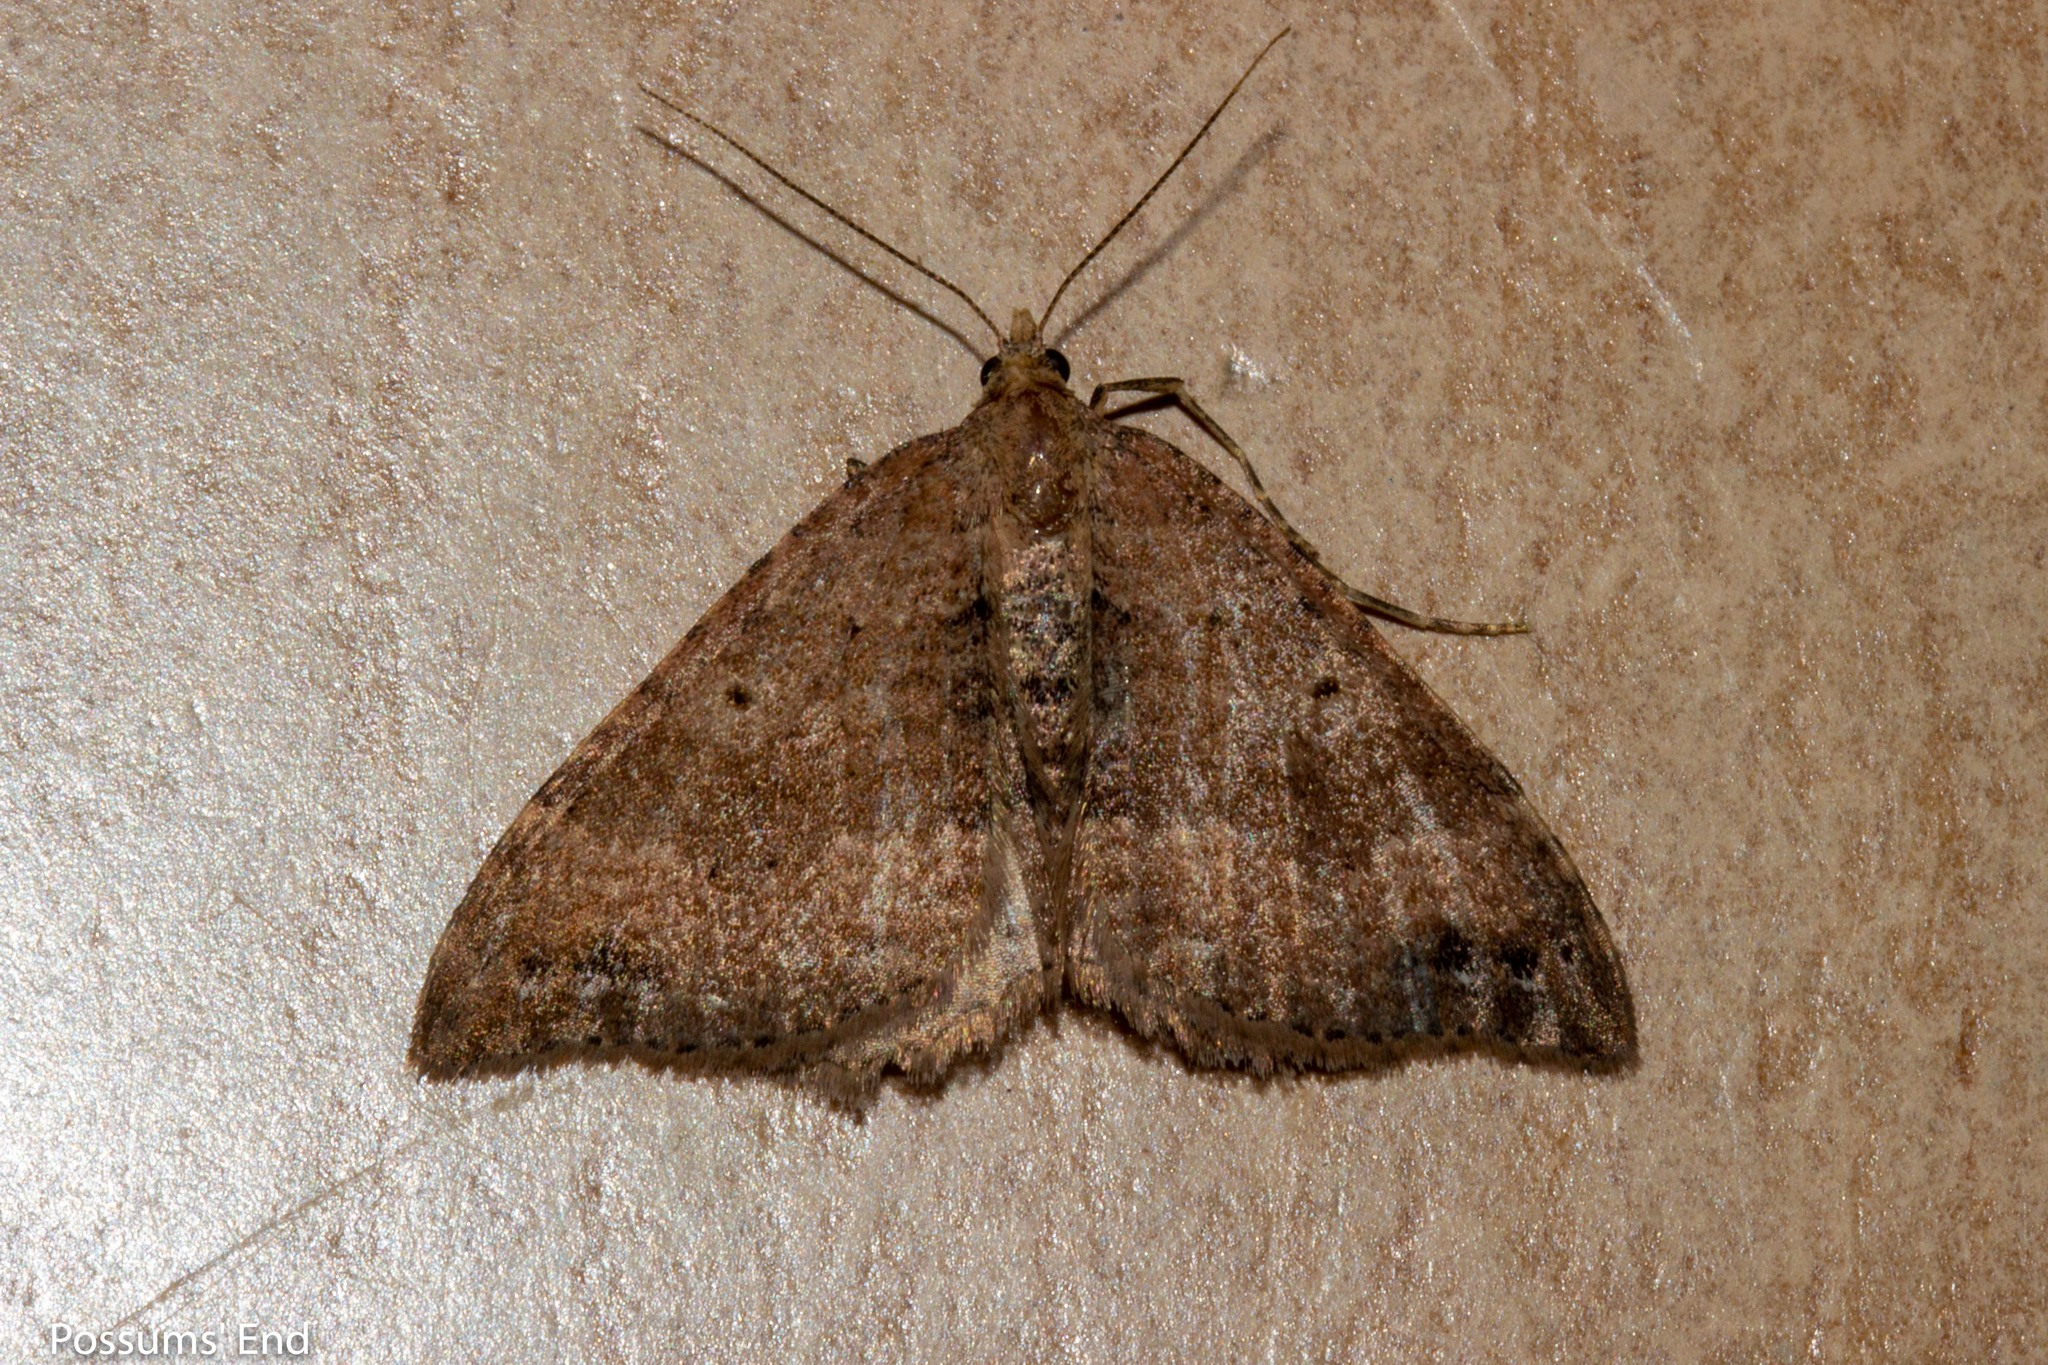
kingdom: Animalia
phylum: Arthropoda
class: Insecta
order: Lepidoptera
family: Geometridae
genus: Homodotis
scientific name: Homodotis megaspilata
